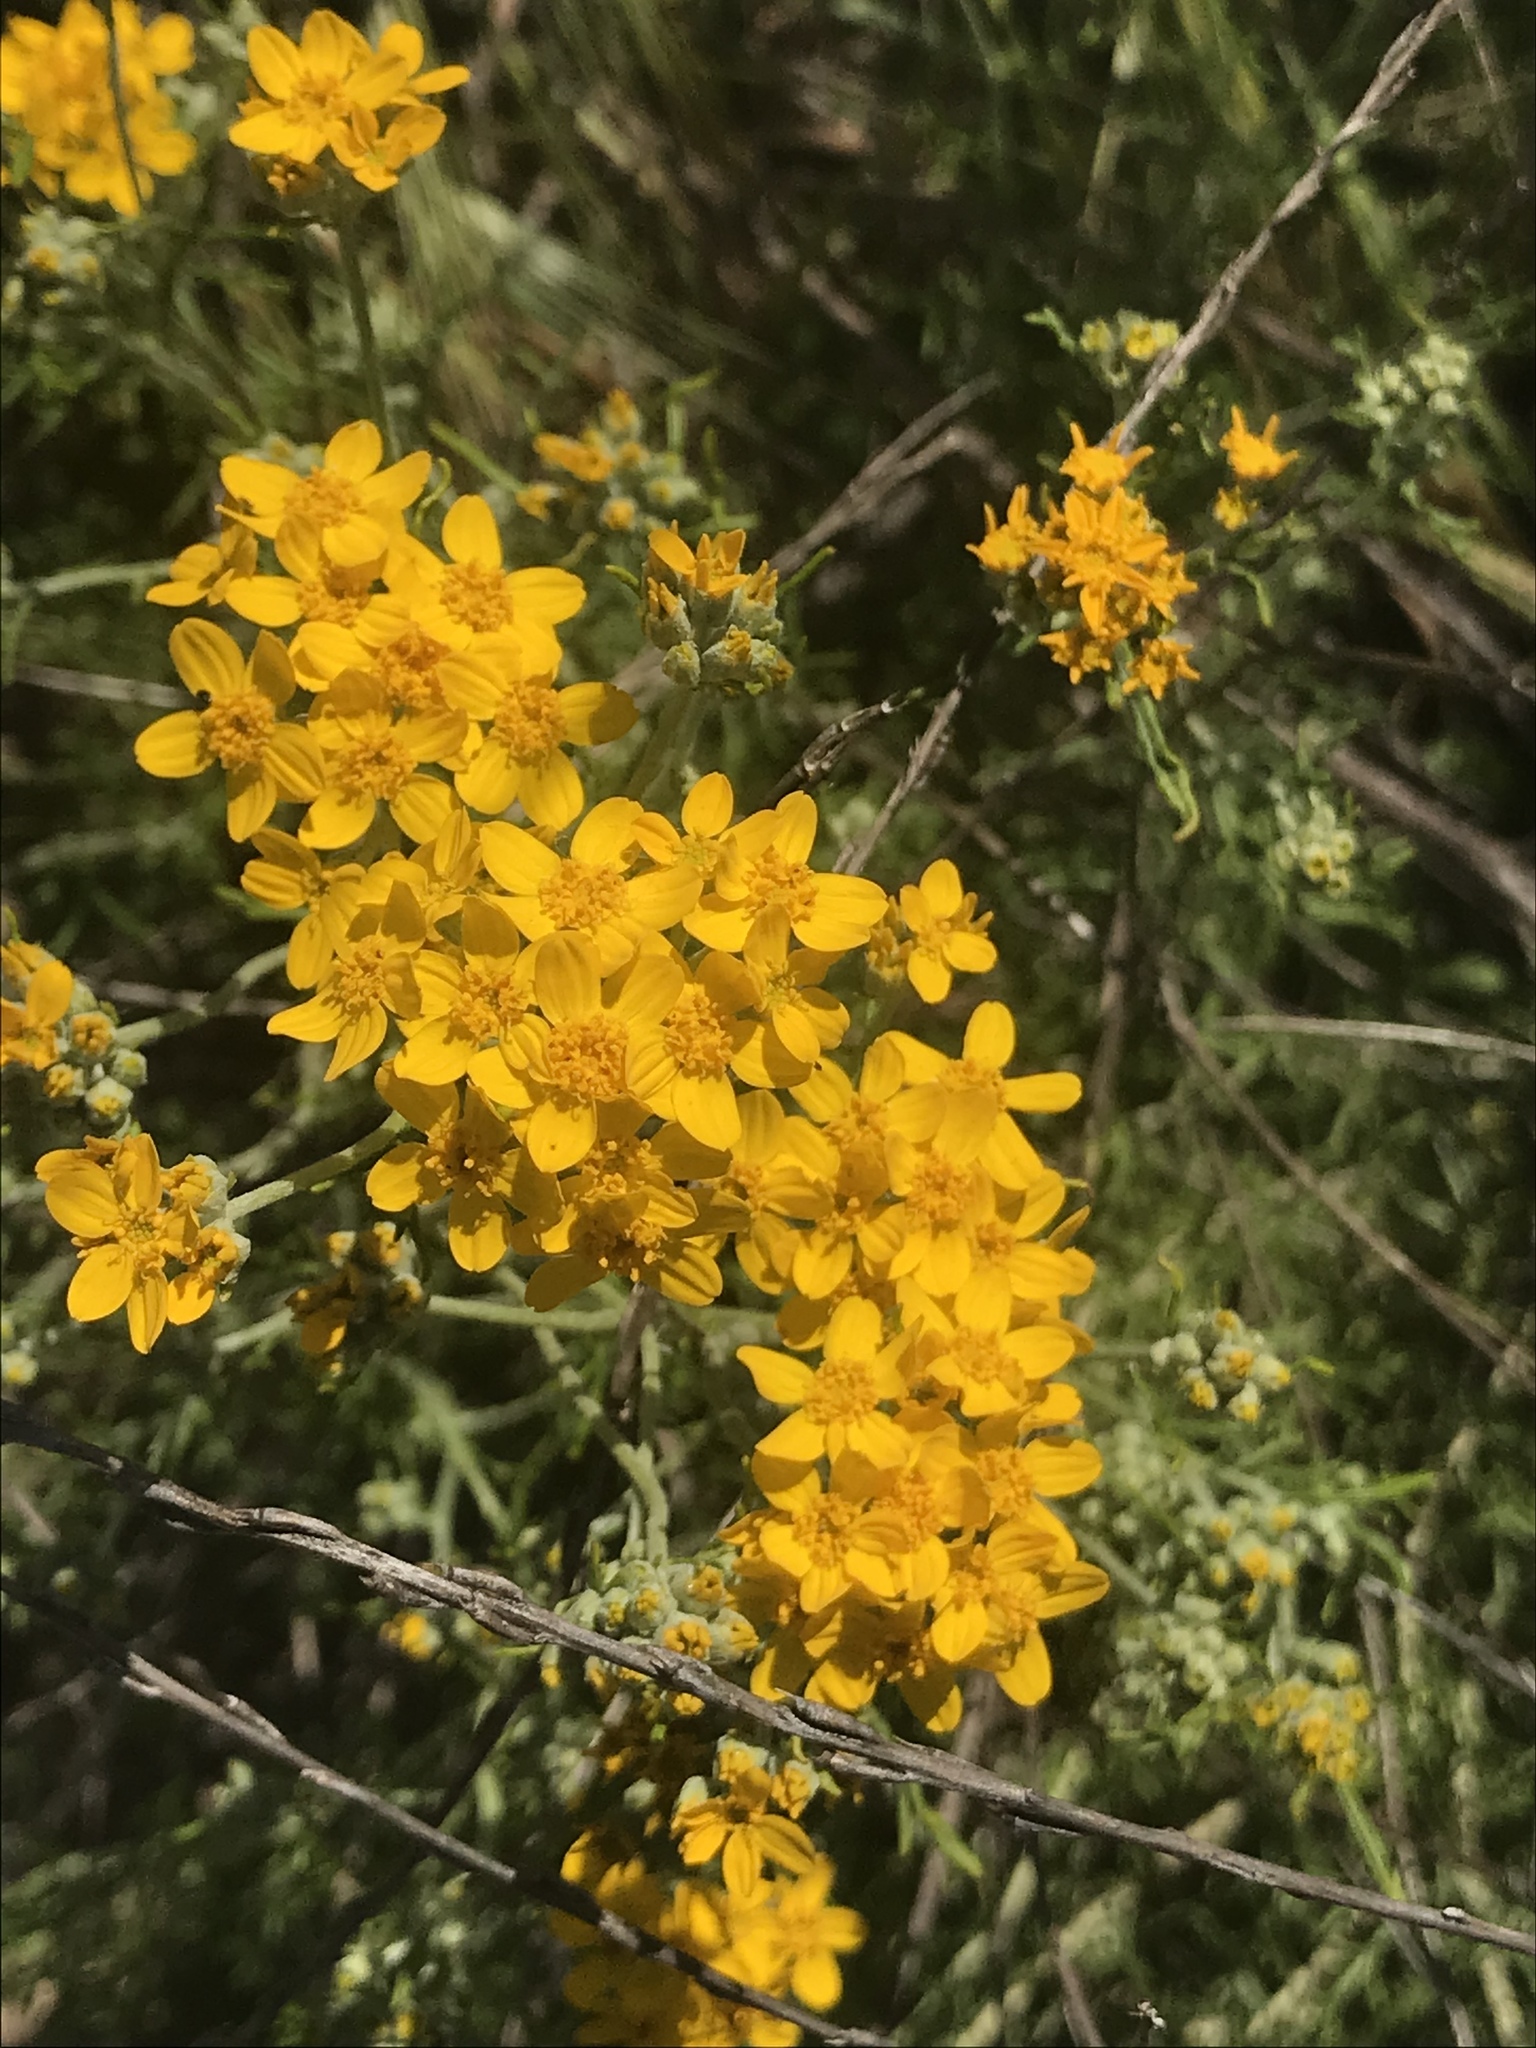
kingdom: Plantae
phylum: Tracheophyta
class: Magnoliopsida
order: Asterales
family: Asteraceae
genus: Eriophyllum
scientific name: Eriophyllum confertiflorum
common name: Golden-yarrow
